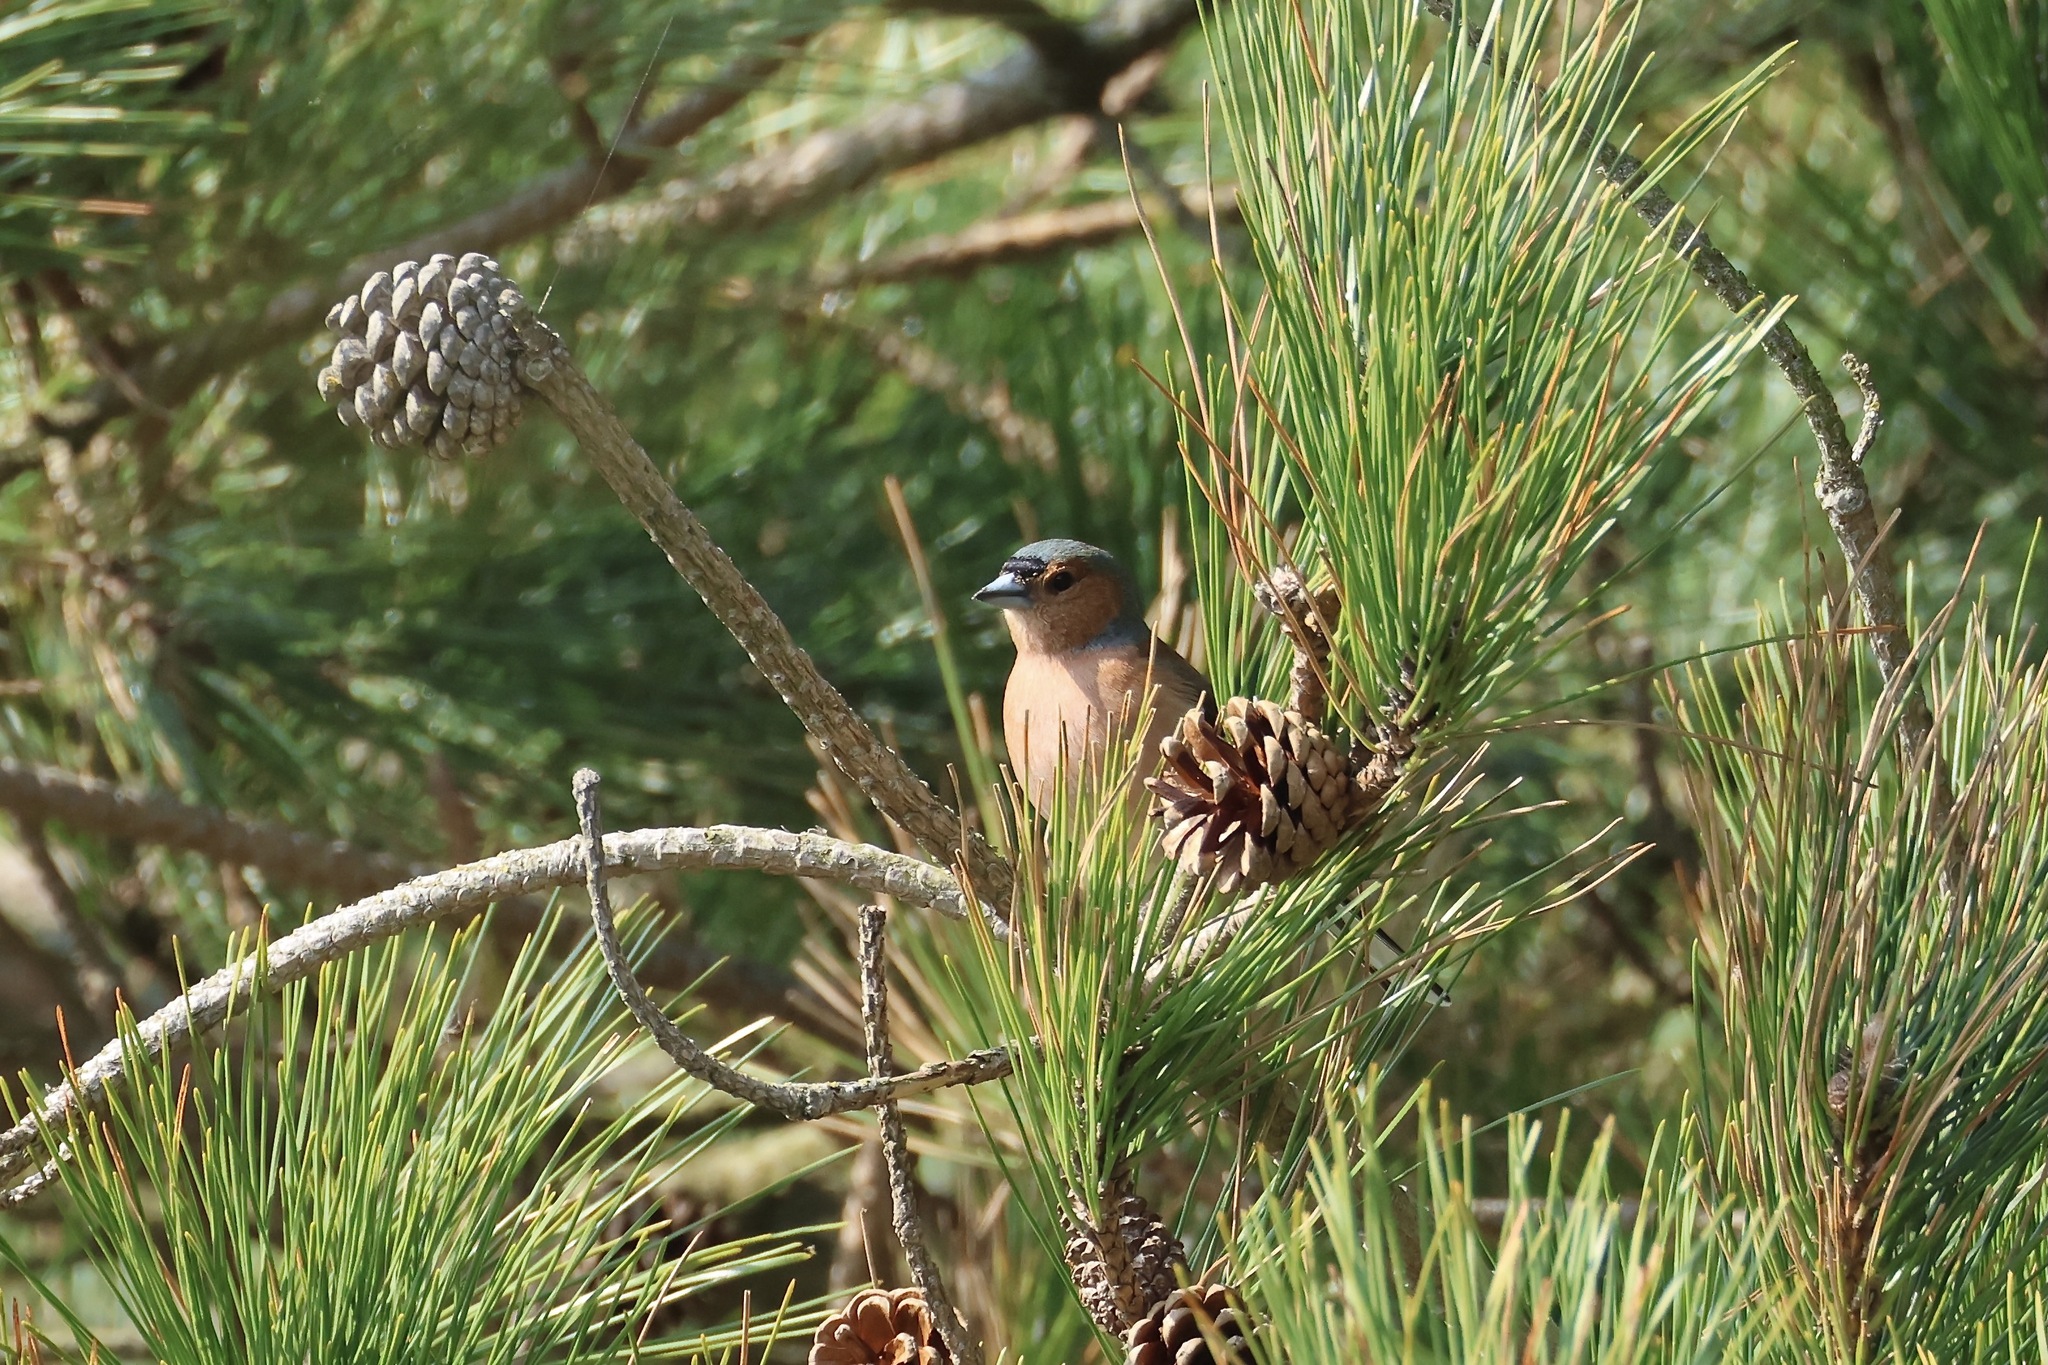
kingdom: Animalia
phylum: Chordata
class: Aves
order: Passeriformes
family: Fringillidae
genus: Fringilla
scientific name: Fringilla coelebs
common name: Common chaffinch
